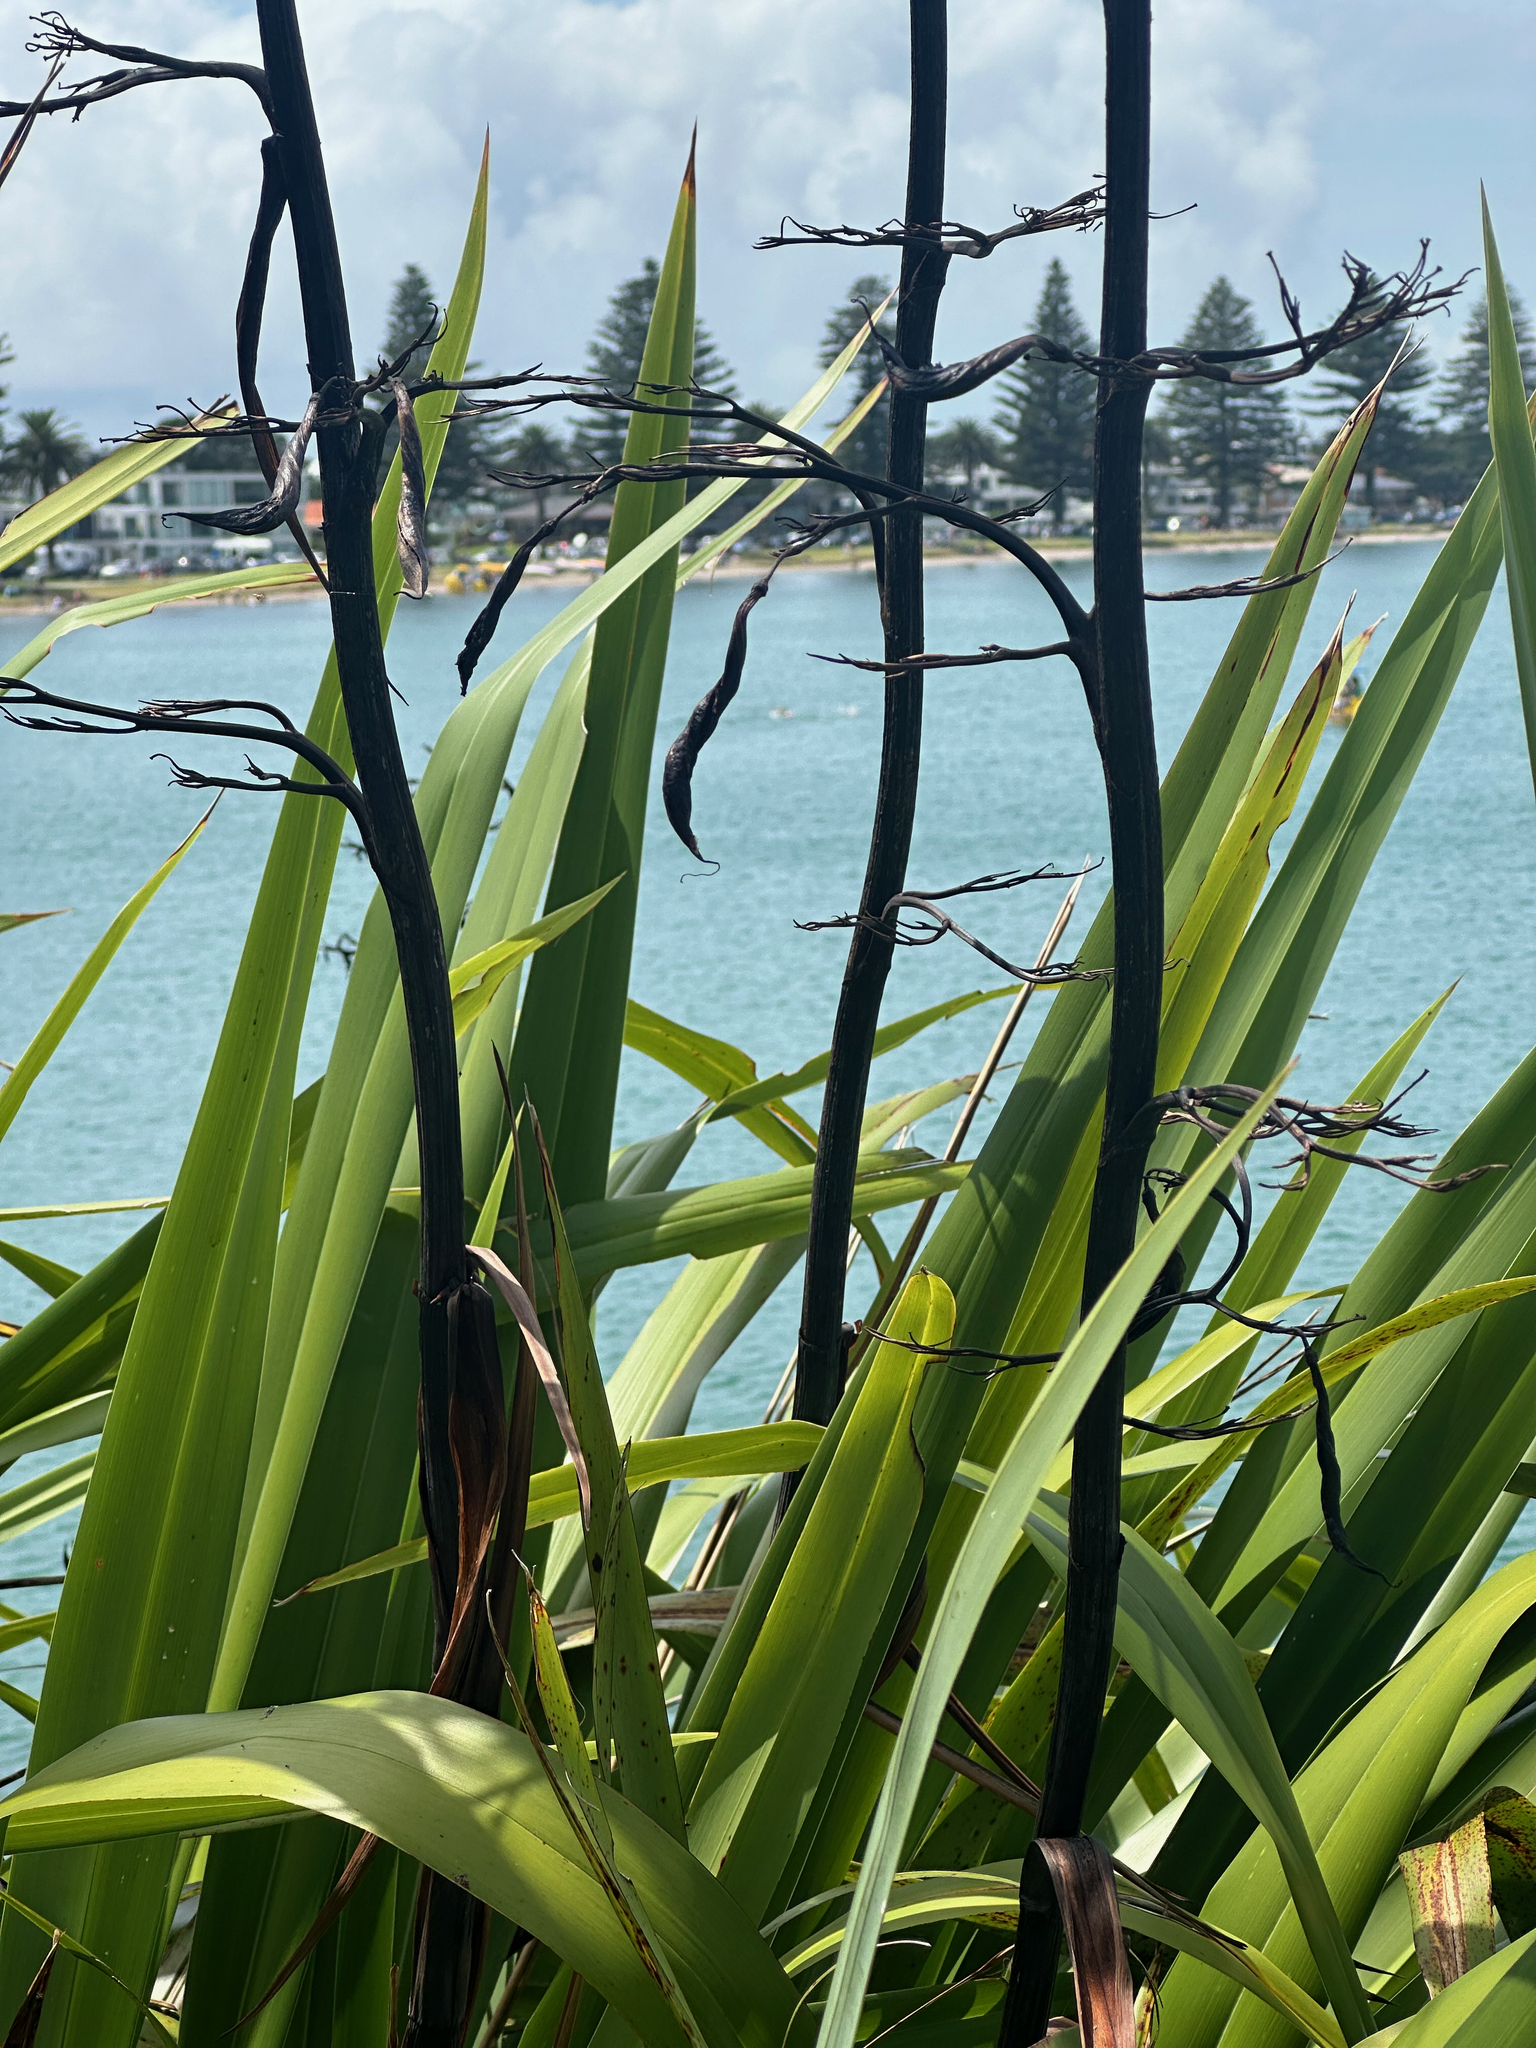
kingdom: Plantae
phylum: Tracheophyta
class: Liliopsida
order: Asparagales
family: Asphodelaceae
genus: Phormium
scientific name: Phormium colensoi
